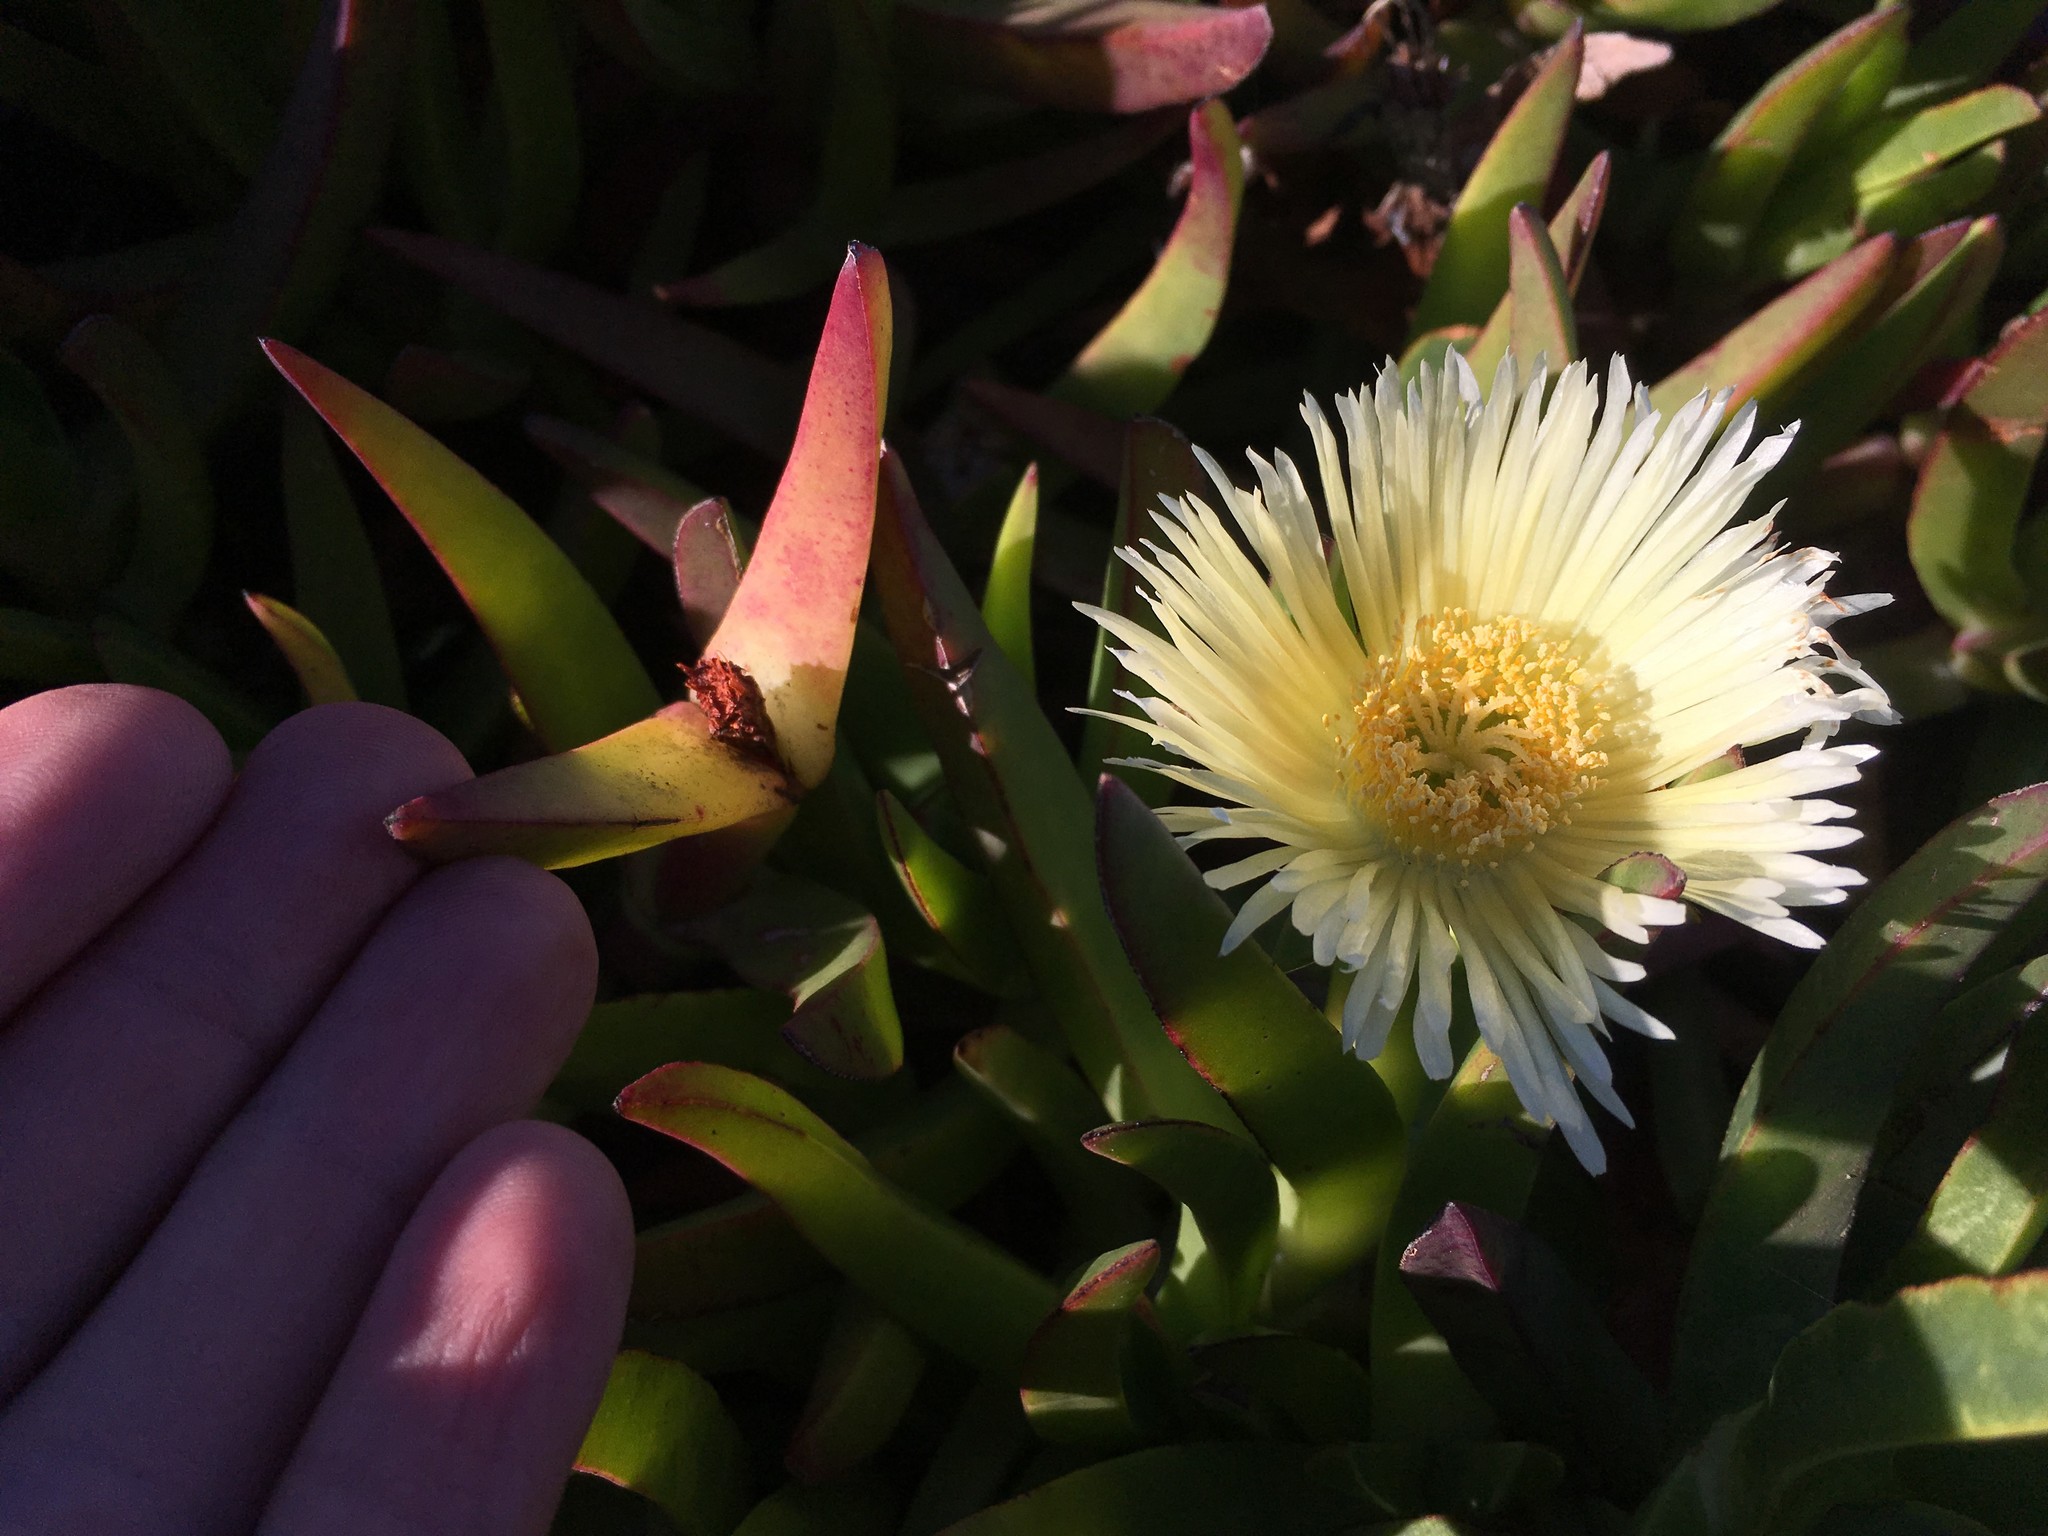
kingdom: Plantae
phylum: Tracheophyta
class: Magnoliopsida
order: Caryophyllales
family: Aizoaceae
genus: Carpobrotus
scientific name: Carpobrotus edulis
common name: Hottentot-fig
